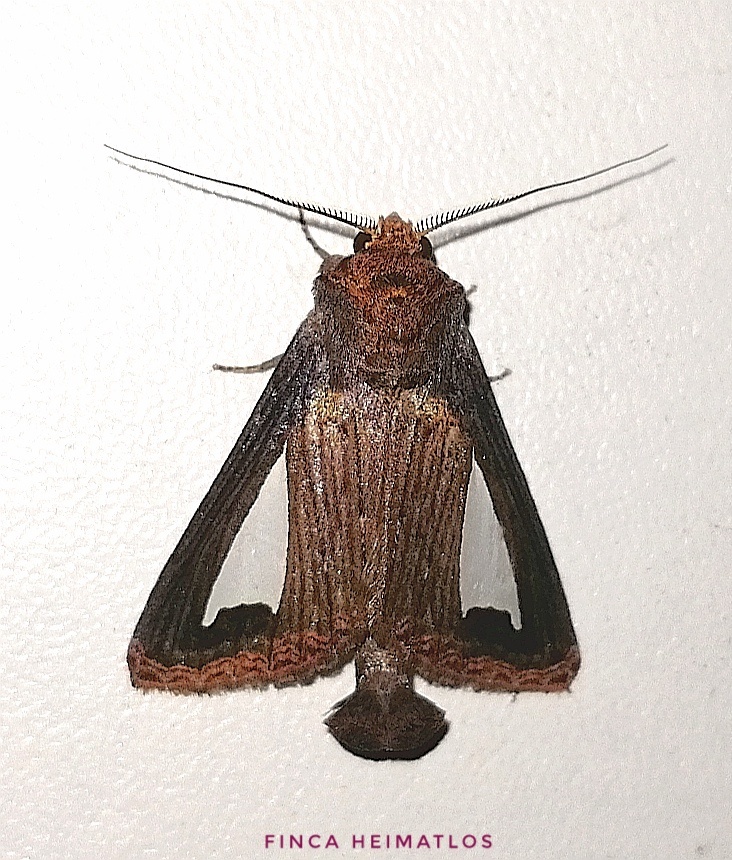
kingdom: Animalia
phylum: Arthropoda
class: Insecta
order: Lepidoptera
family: Notodontidae
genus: Notoplusia
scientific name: Notoplusia clara
